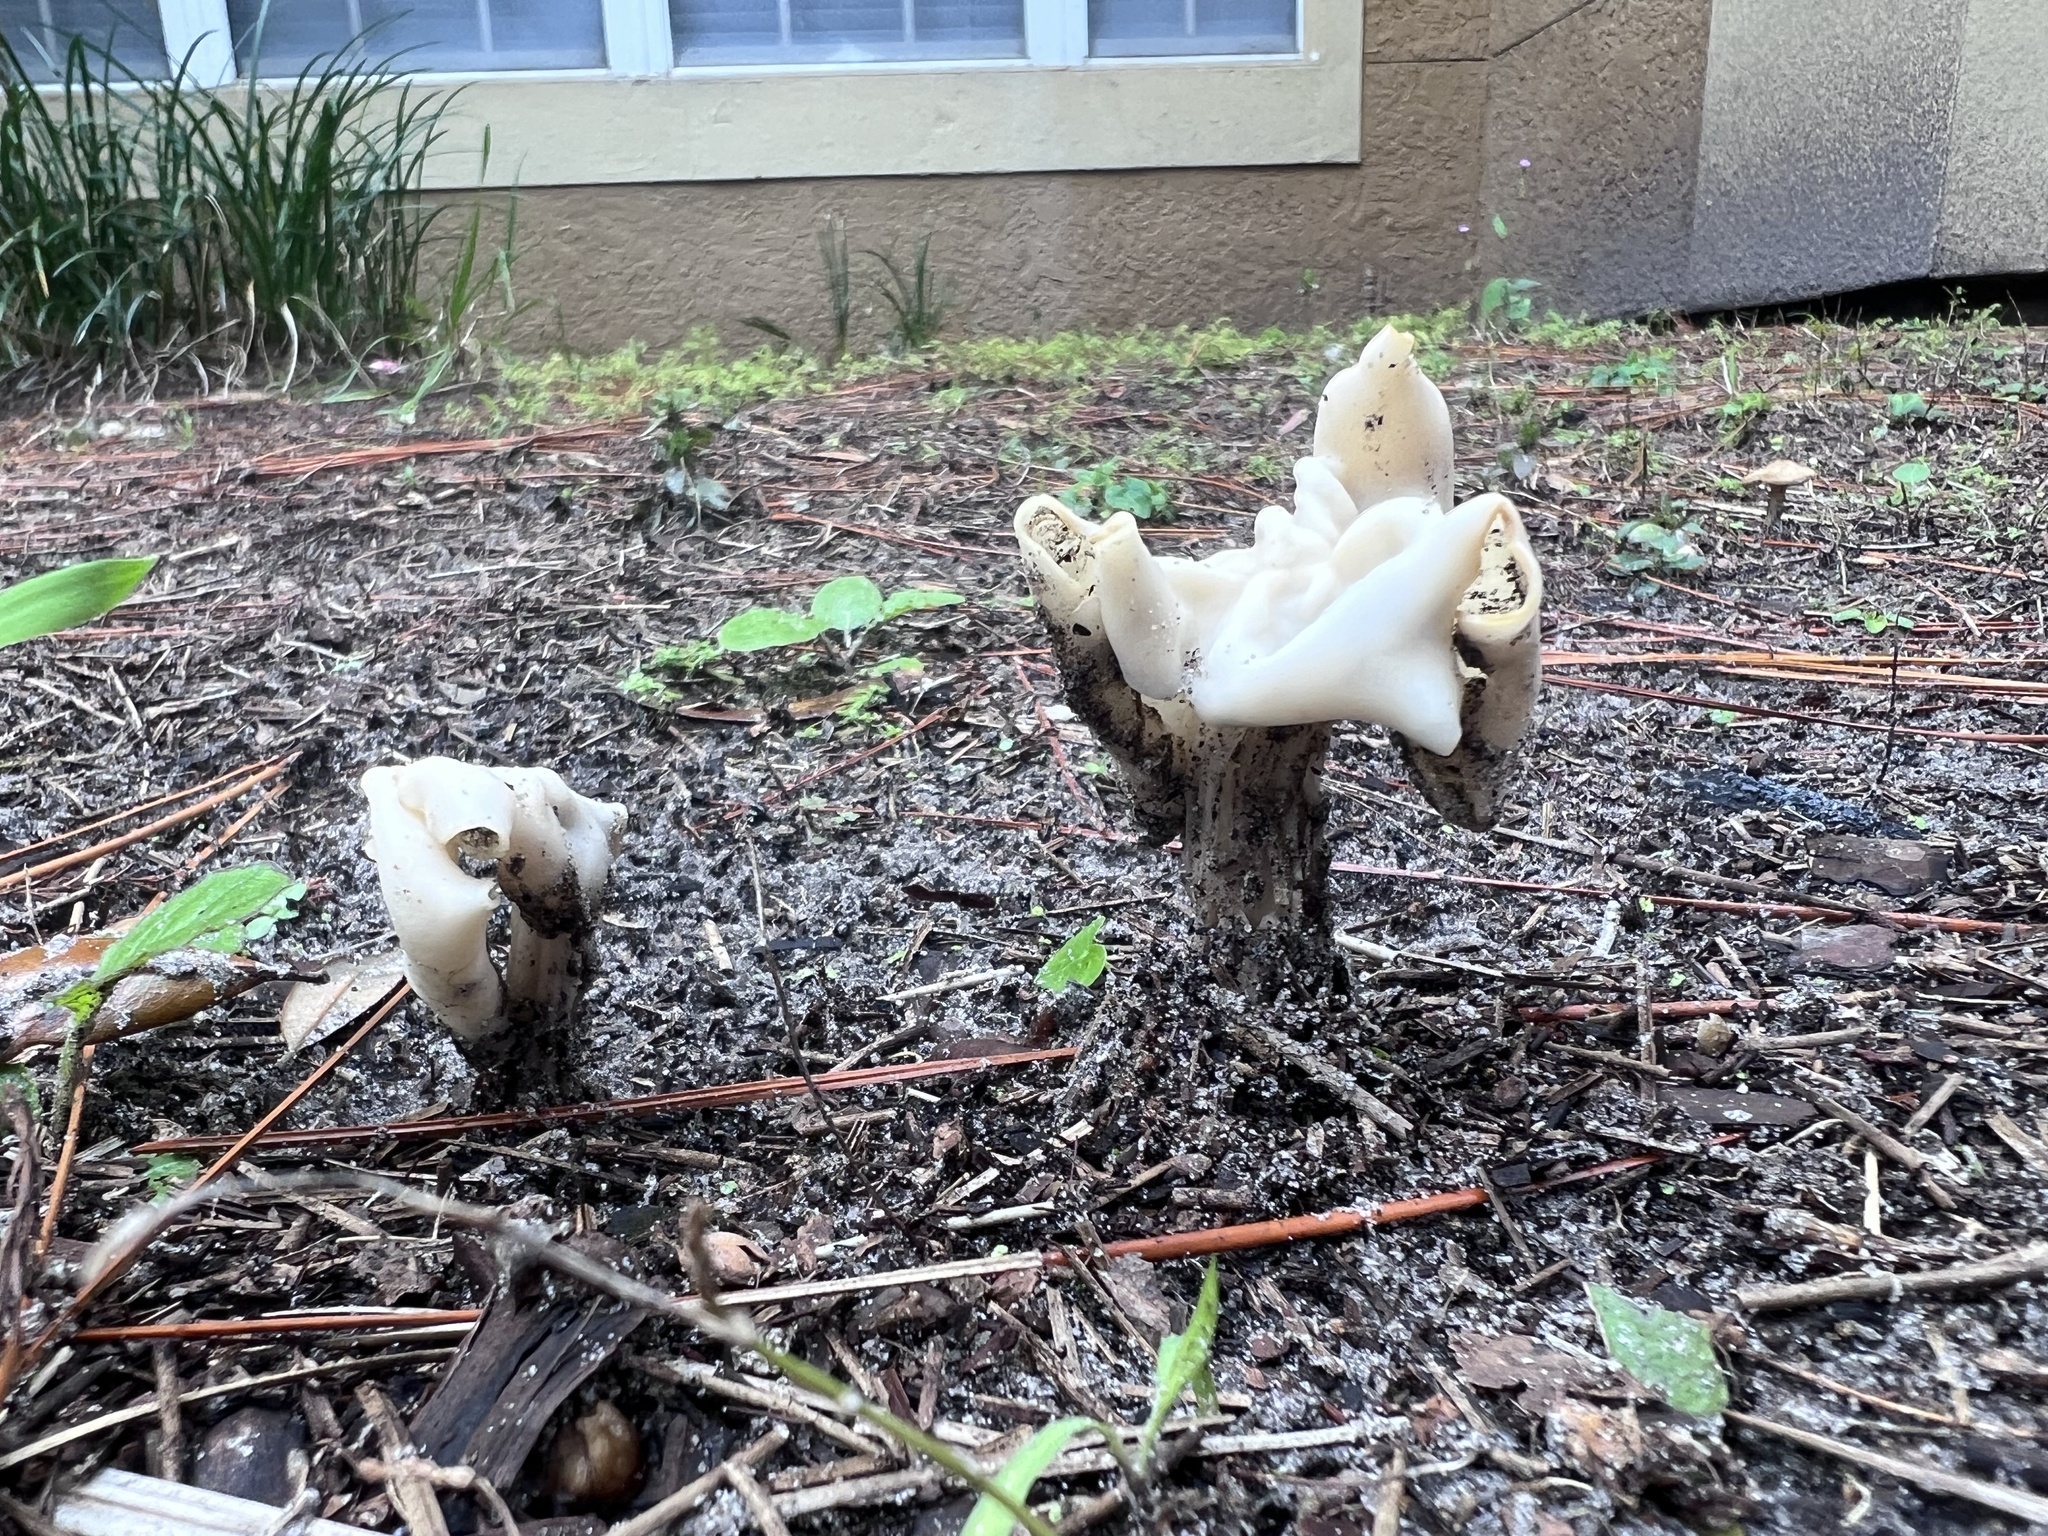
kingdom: Fungi
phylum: Ascomycota
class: Pezizomycetes
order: Pezizales
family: Helvellaceae
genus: Helvella
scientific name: Helvella crispa
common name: White saddle
